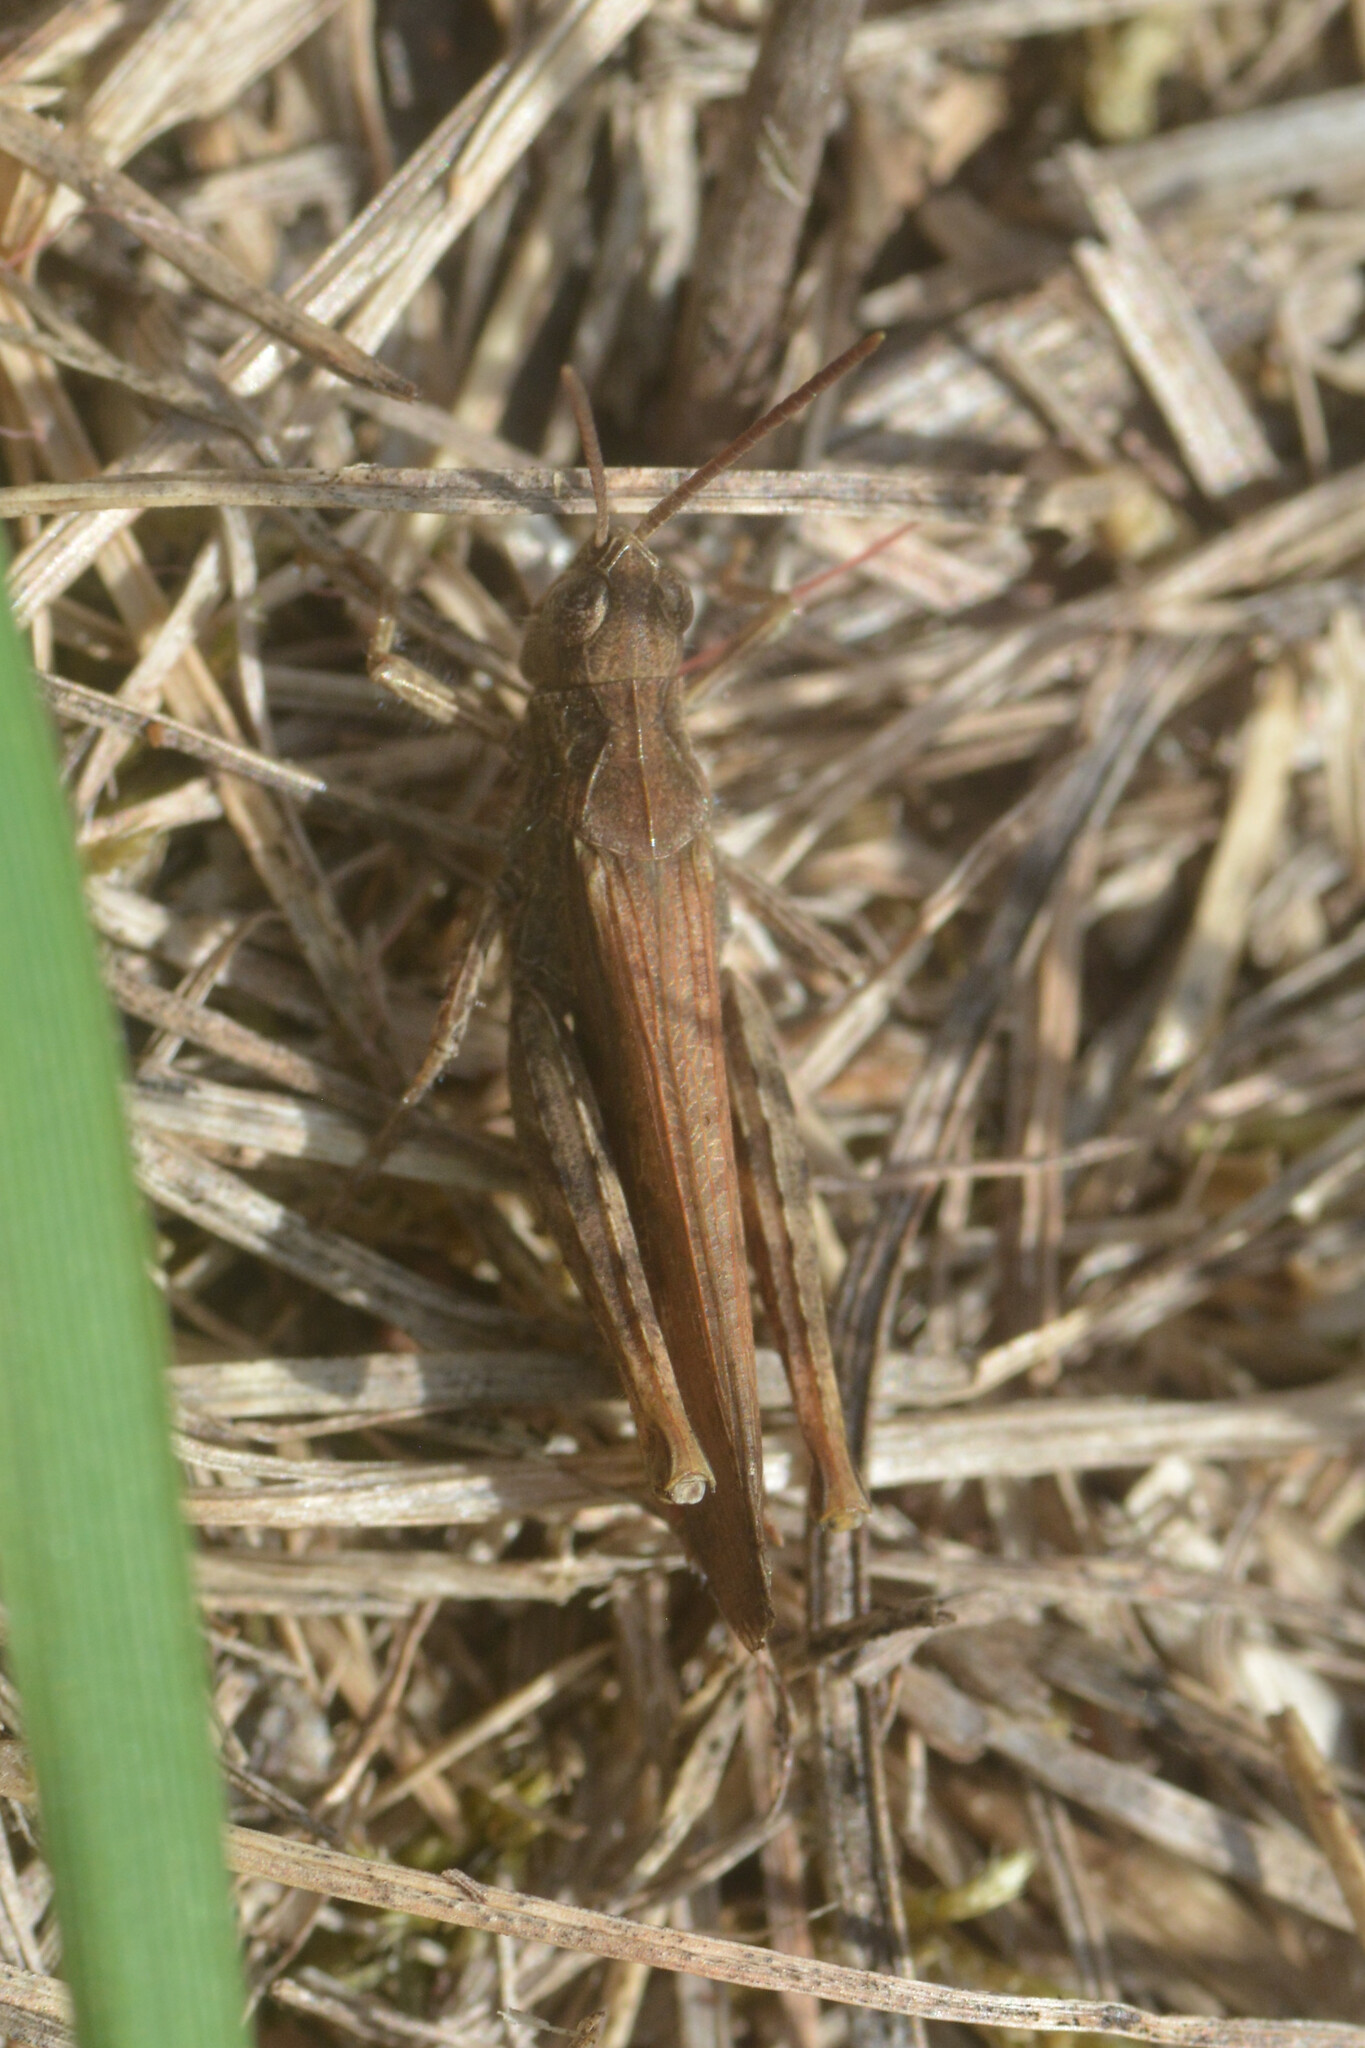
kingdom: Animalia
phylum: Arthropoda
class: Insecta
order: Orthoptera
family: Acrididae
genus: Chorthippus
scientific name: Chorthippus brunneus
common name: Field grasshopper
